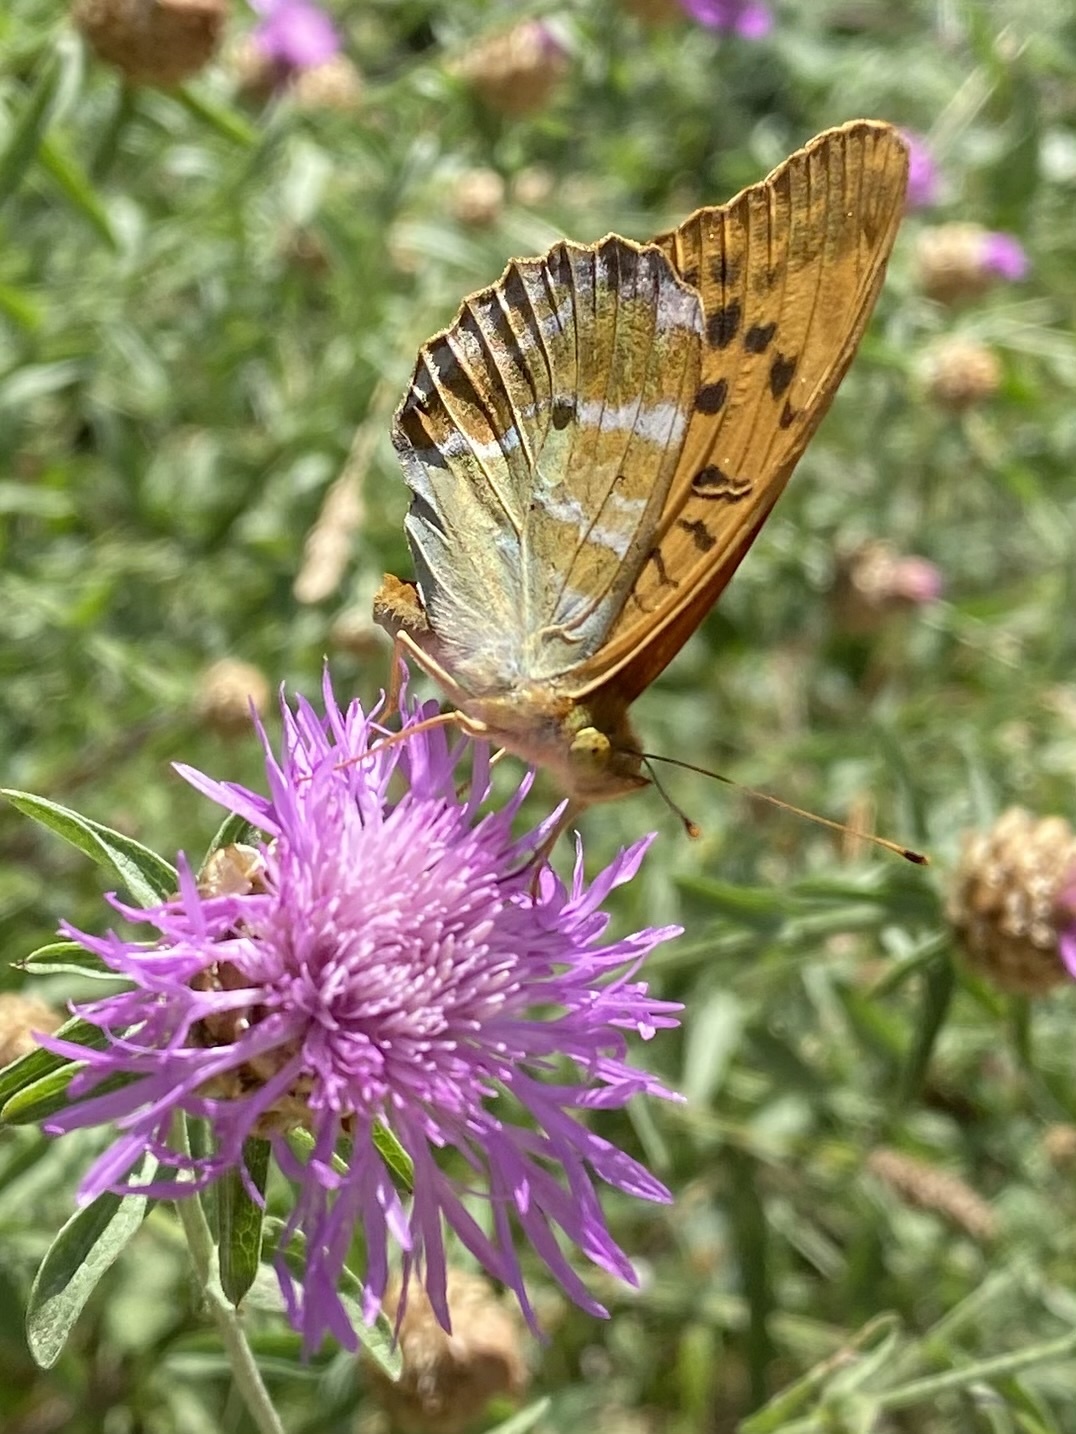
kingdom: Animalia
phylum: Arthropoda
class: Insecta
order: Lepidoptera
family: Nymphalidae
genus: Argynnis
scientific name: Argynnis paphia
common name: Silver-washed fritillary
